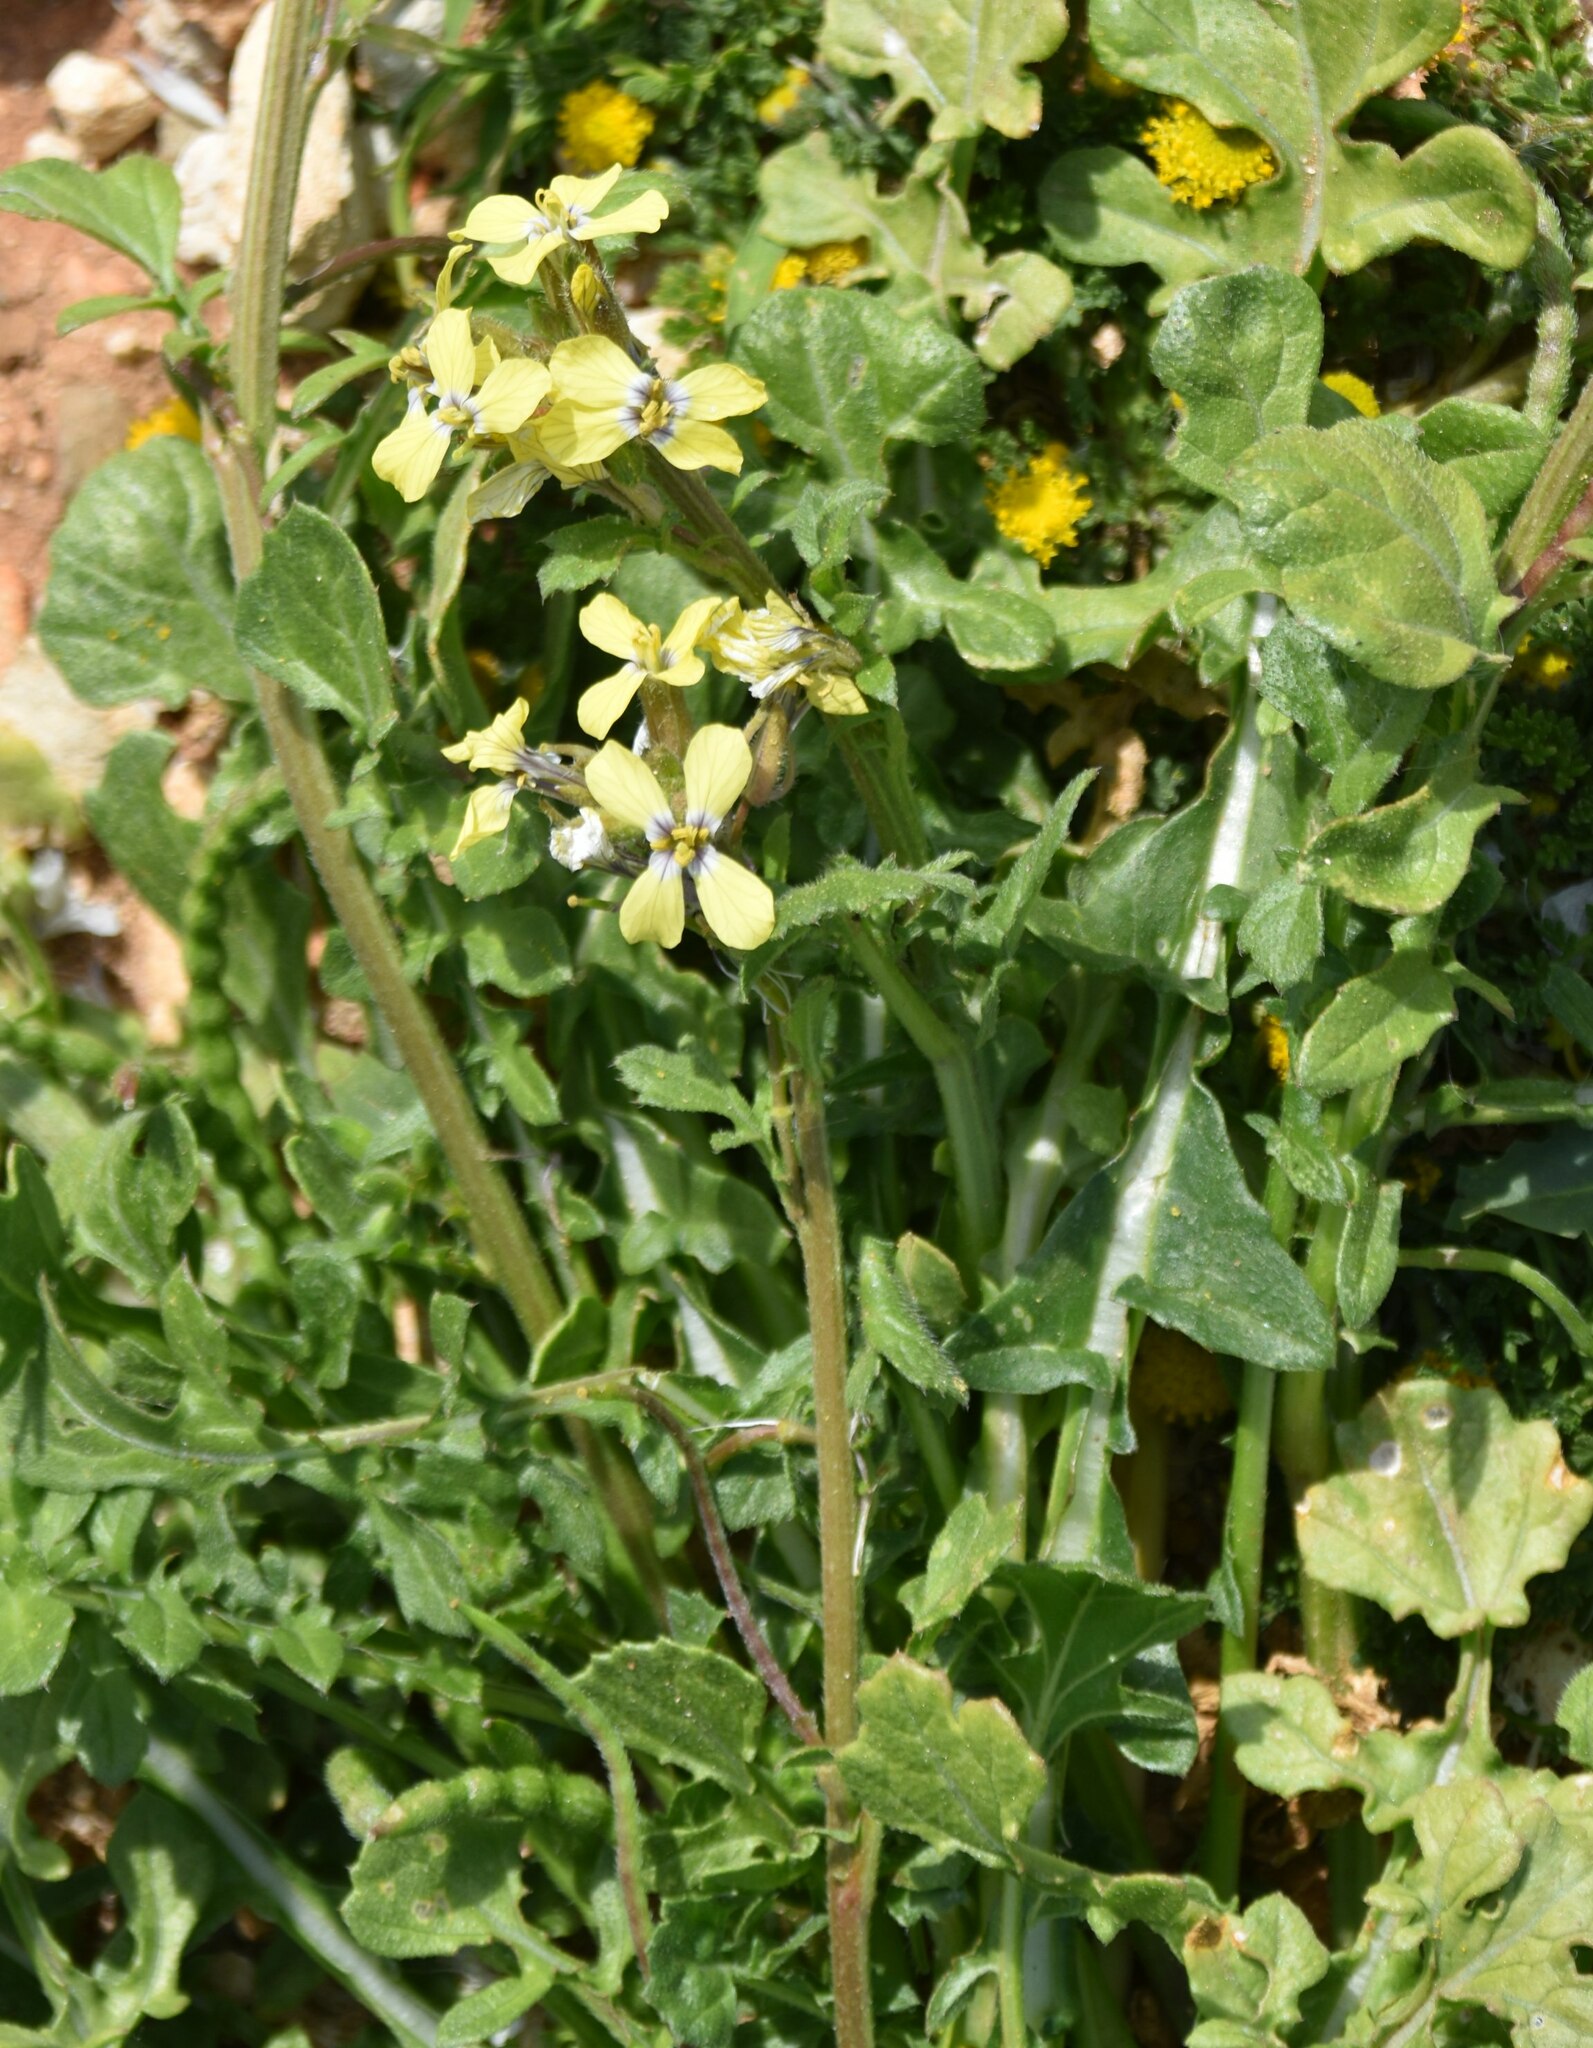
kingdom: Plantae
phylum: Tracheophyta
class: Magnoliopsida
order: Brassicales
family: Brassicaceae
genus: Enarthrocarpus
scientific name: Enarthrocarpus arcuatus
